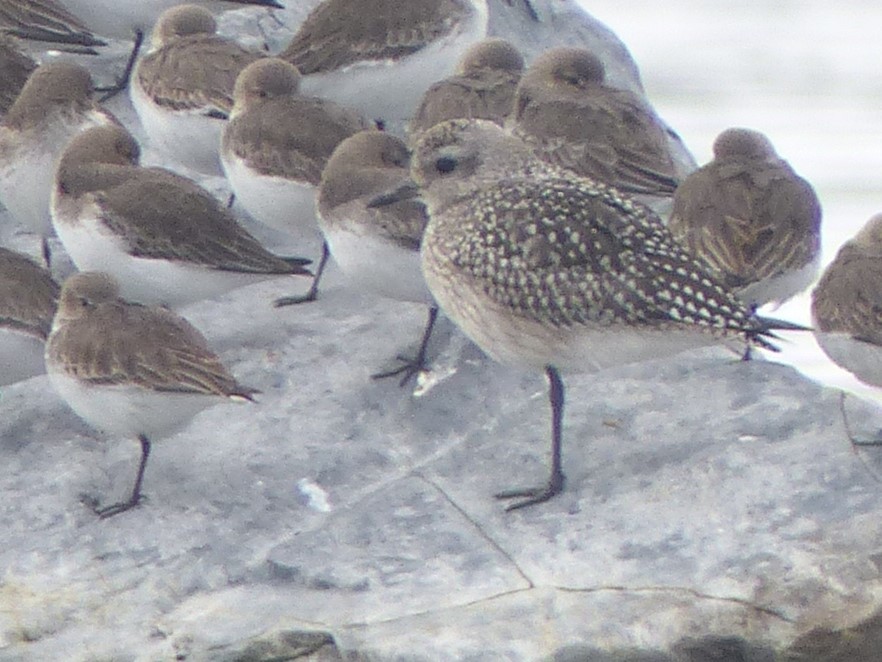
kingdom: Animalia
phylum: Chordata
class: Aves
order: Charadriiformes
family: Charadriidae
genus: Pluvialis
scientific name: Pluvialis squatarola
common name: Grey plover
